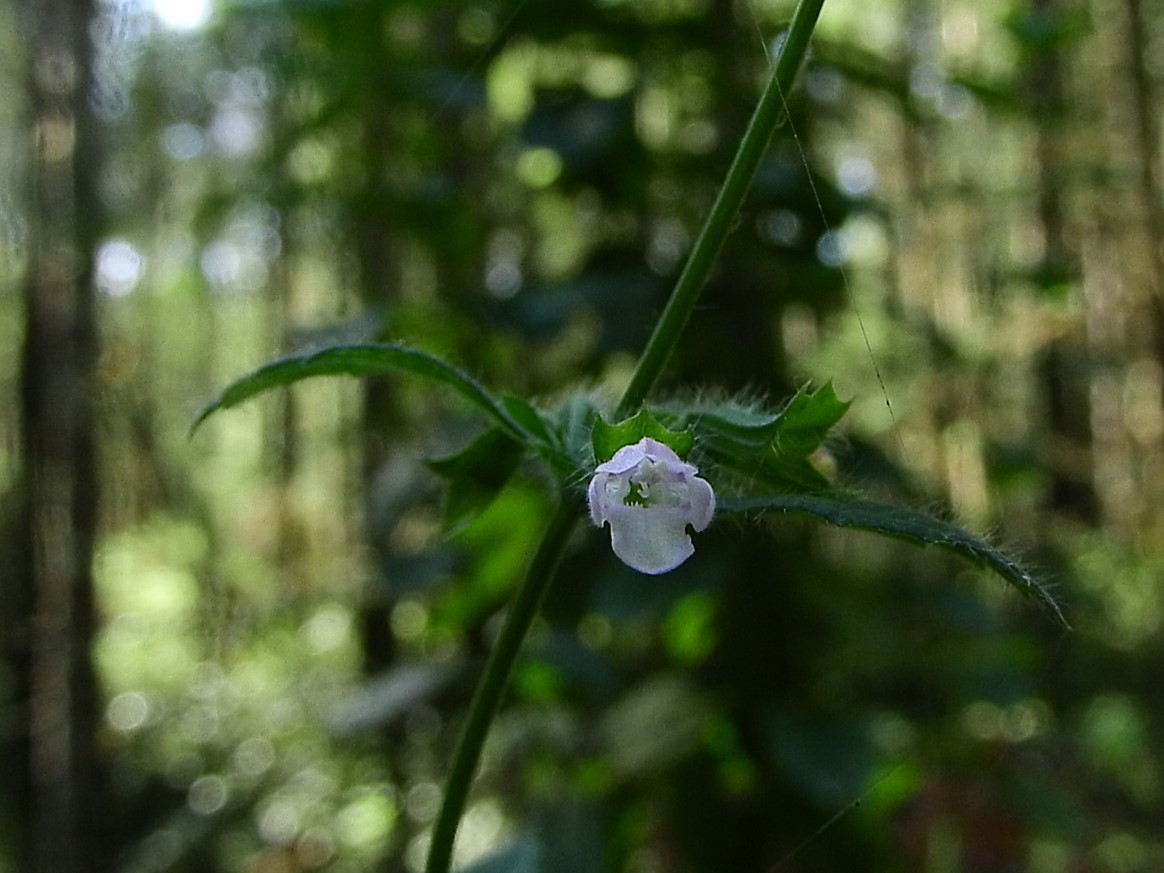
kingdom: Plantae
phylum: Tracheophyta
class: Magnoliopsida
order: Lamiales
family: Lamiaceae
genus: Melissa
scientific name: Melissa officinalis
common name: Balm
